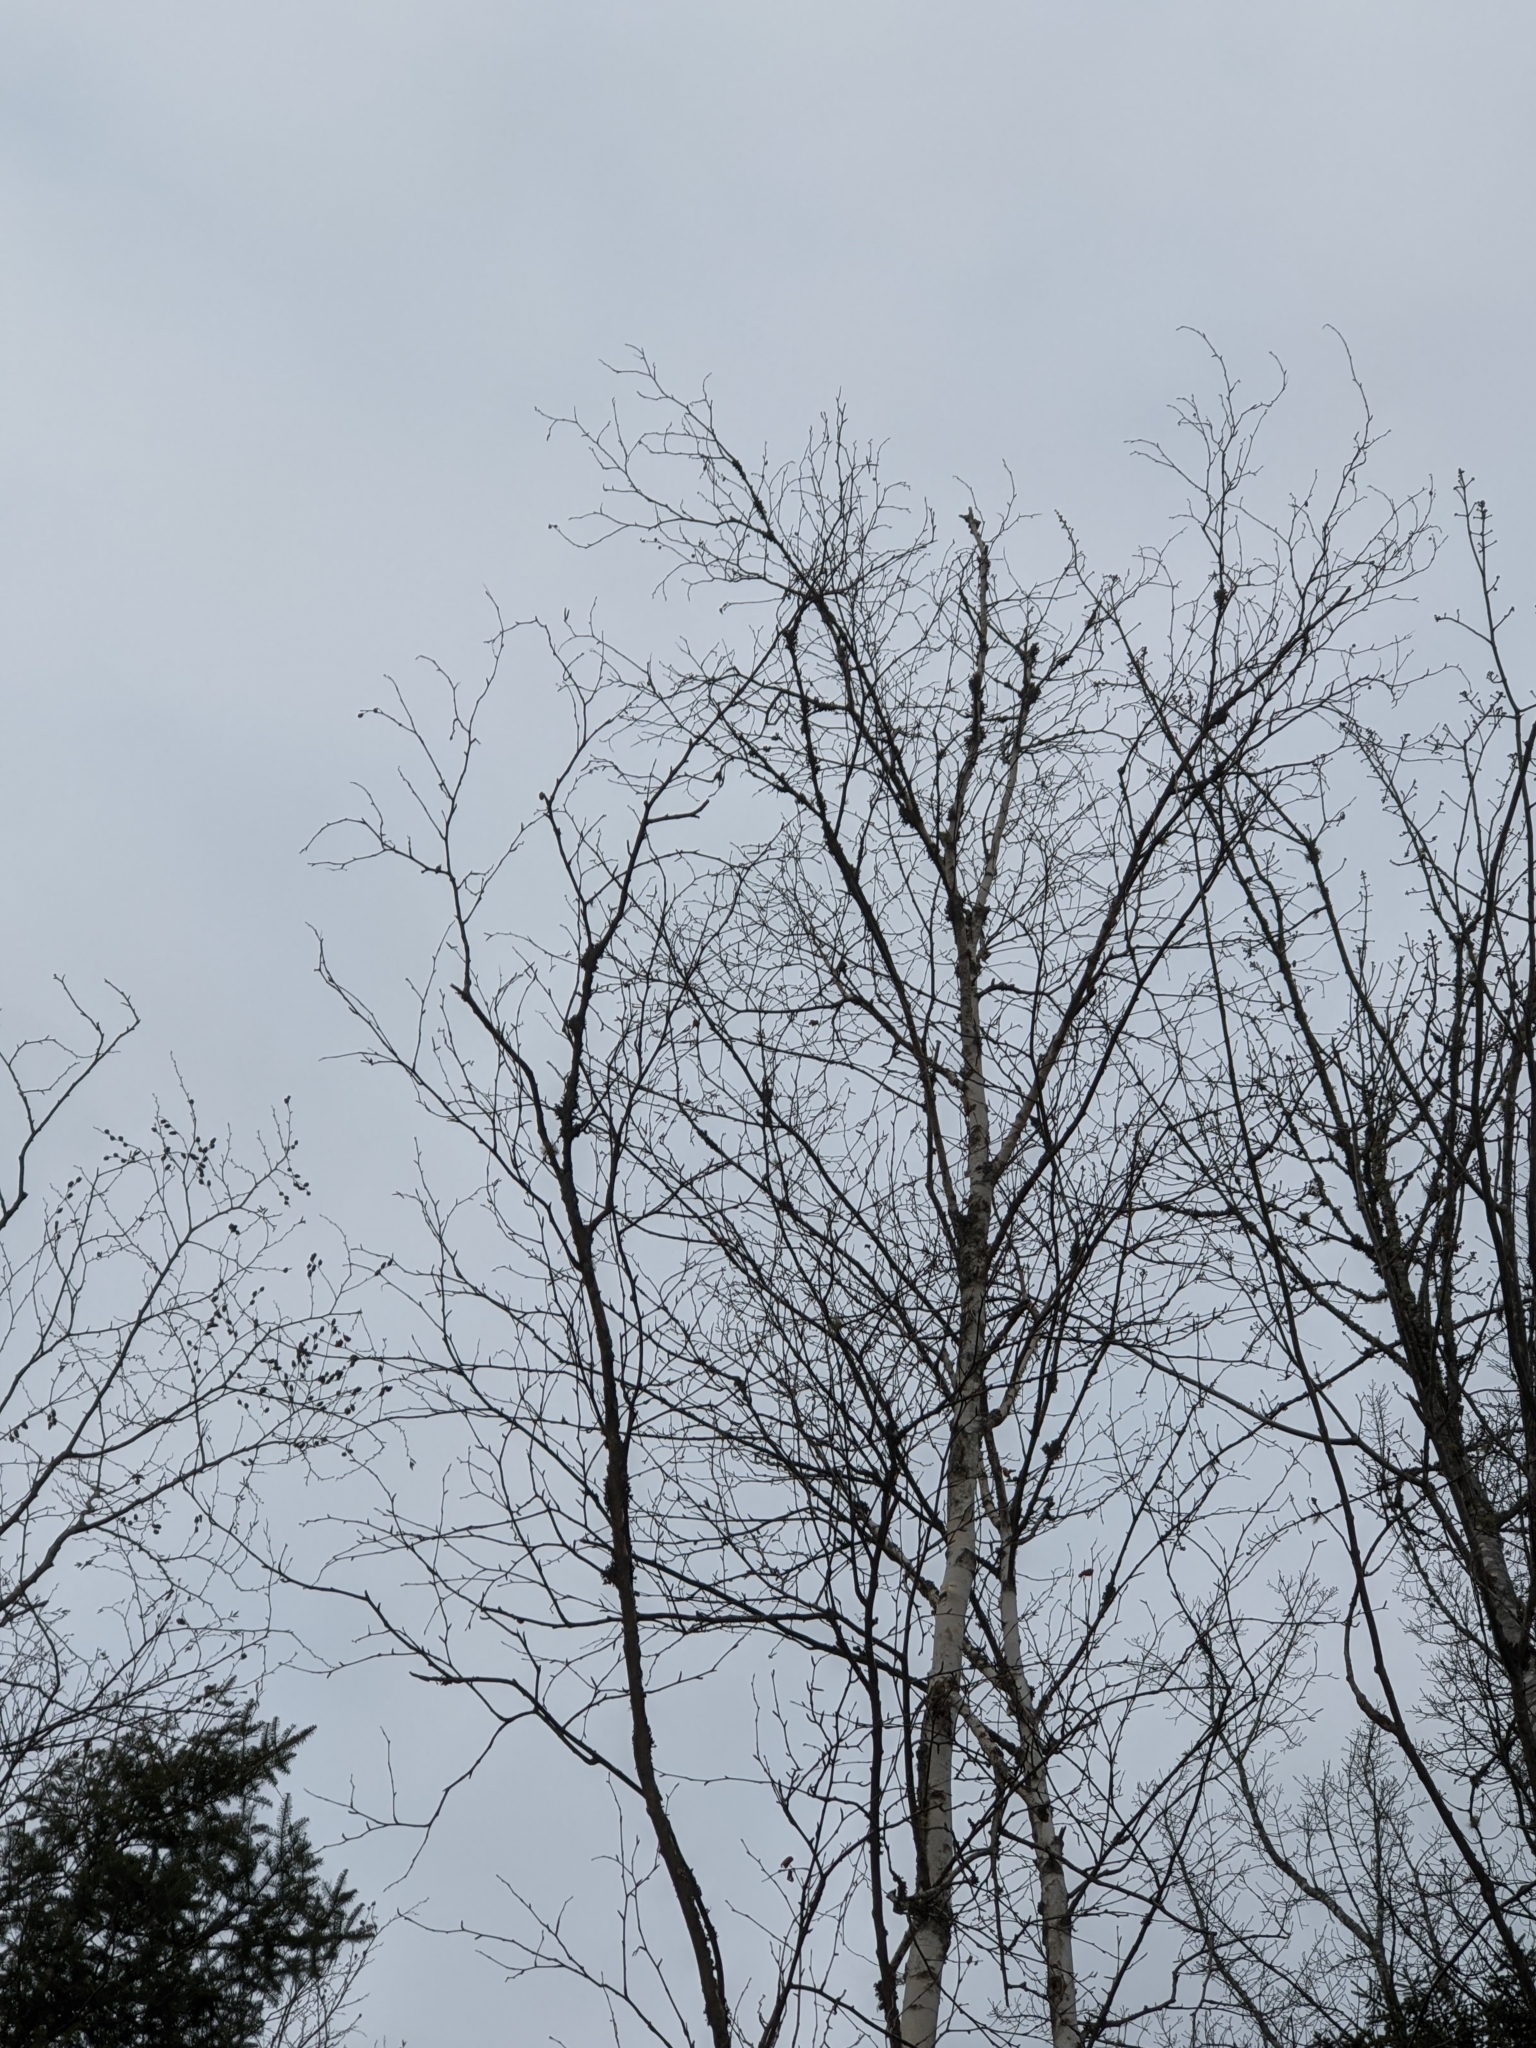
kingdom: Plantae
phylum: Tracheophyta
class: Magnoliopsida
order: Fagales
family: Betulaceae
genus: Betula
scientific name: Betula papyrifera
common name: Paper birch
